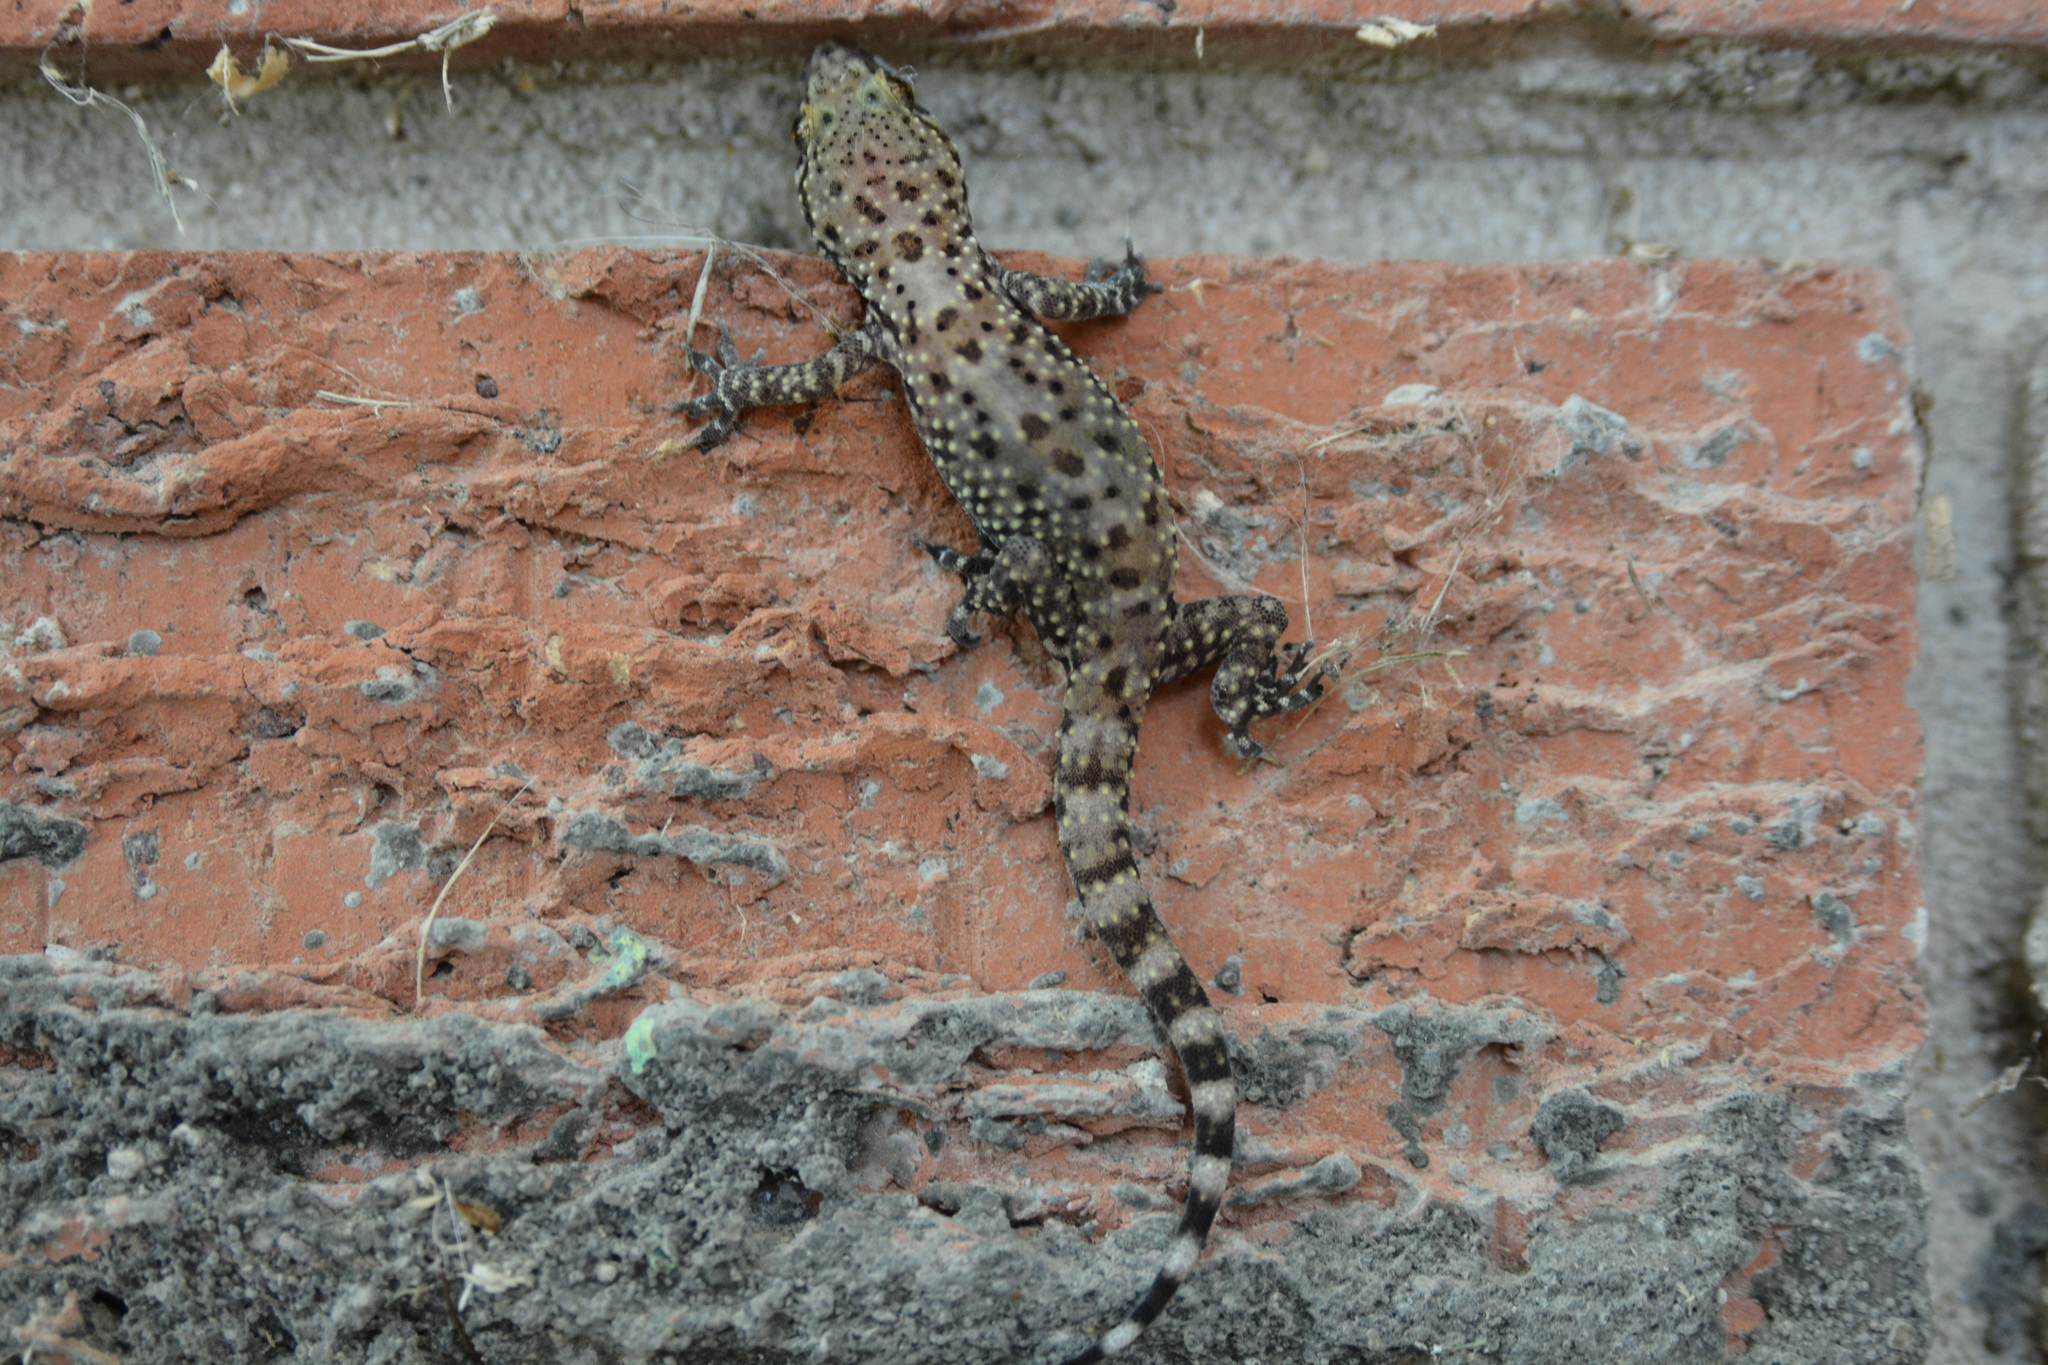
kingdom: Animalia
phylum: Chordata
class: Squamata
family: Gekkonidae
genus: Hemidactylus
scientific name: Hemidactylus turcicus
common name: Turkish gecko
